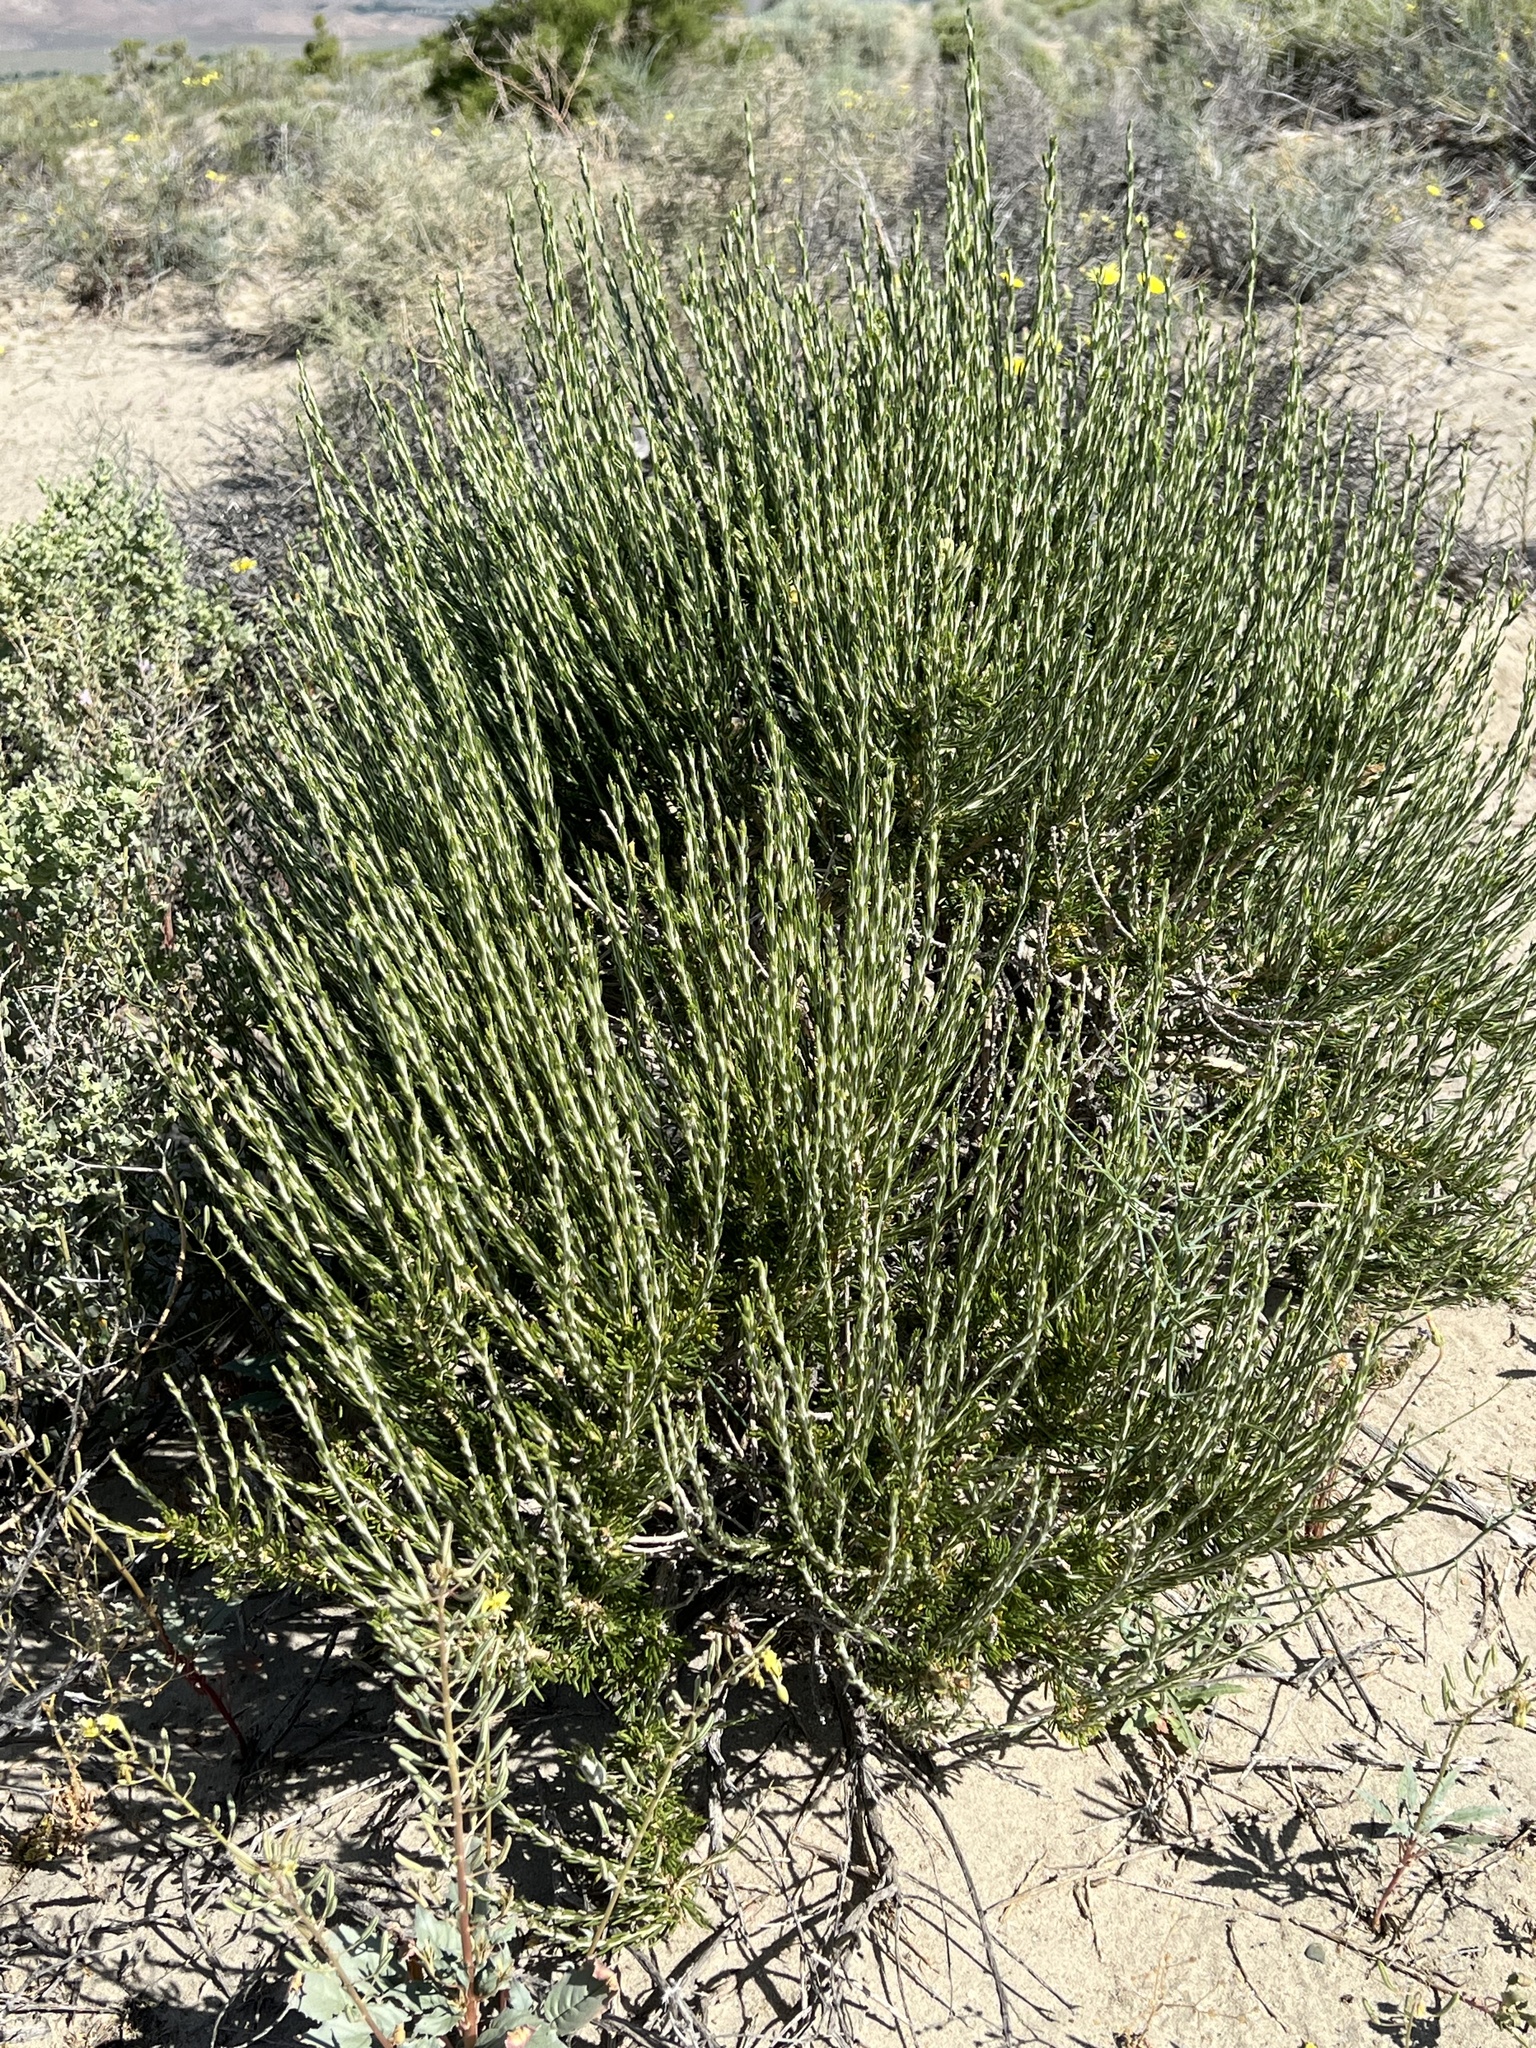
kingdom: Plantae
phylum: Tracheophyta
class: Magnoliopsida
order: Asterales
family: Asteraceae
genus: Tetradymia
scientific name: Tetradymia glabrata
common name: Smooth tetradymia
